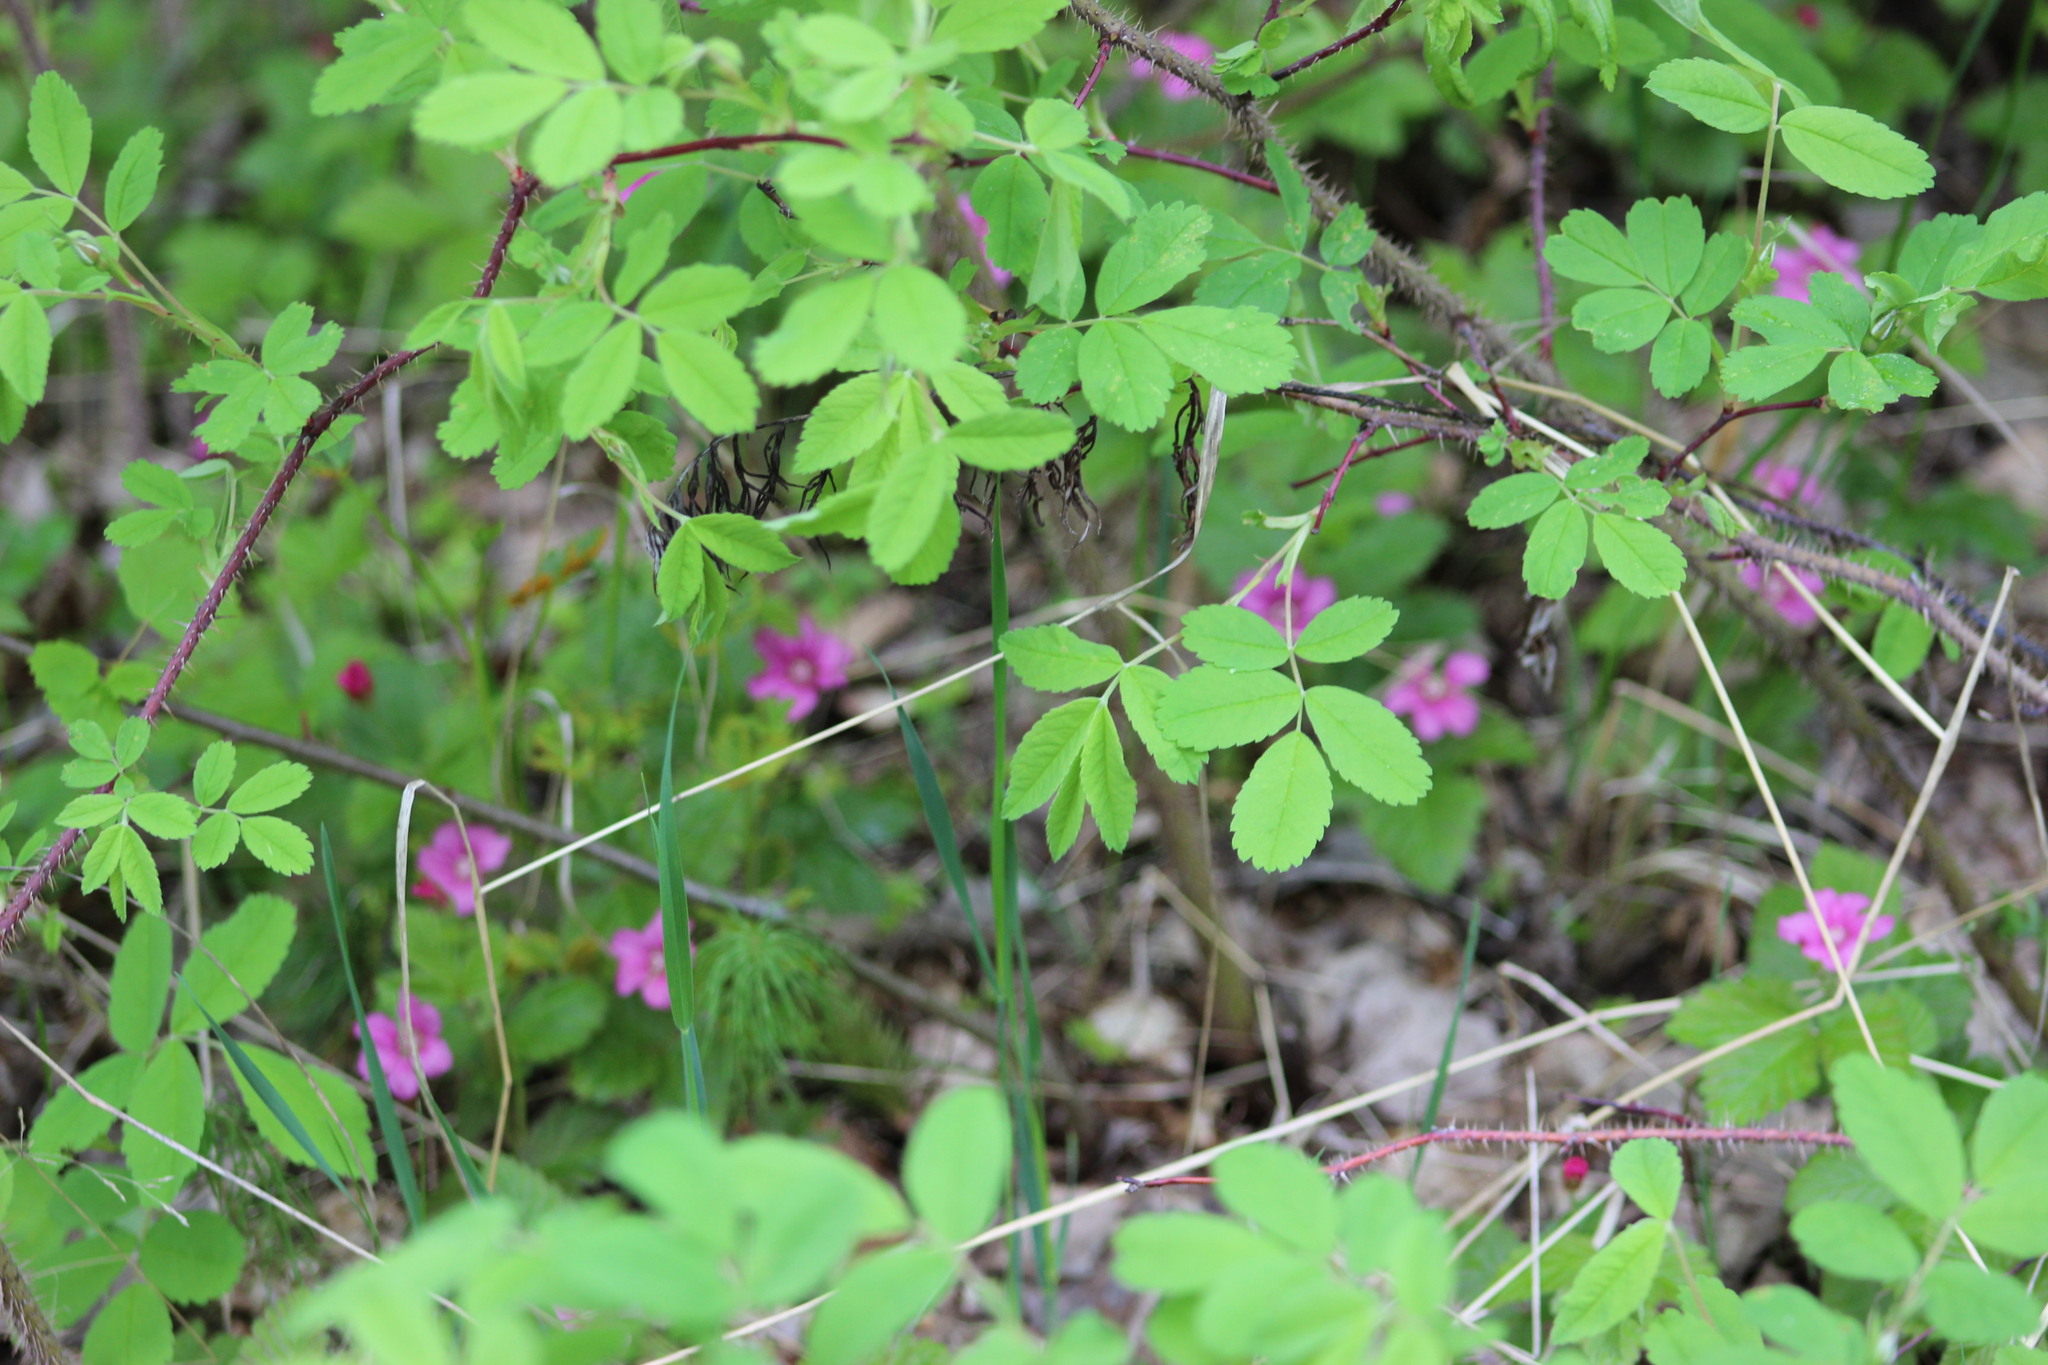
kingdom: Plantae
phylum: Tracheophyta
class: Magnoliopsida
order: Rosales
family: Rosaceae
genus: Rosa
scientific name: Rosa acicularis
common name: Prickly rose
